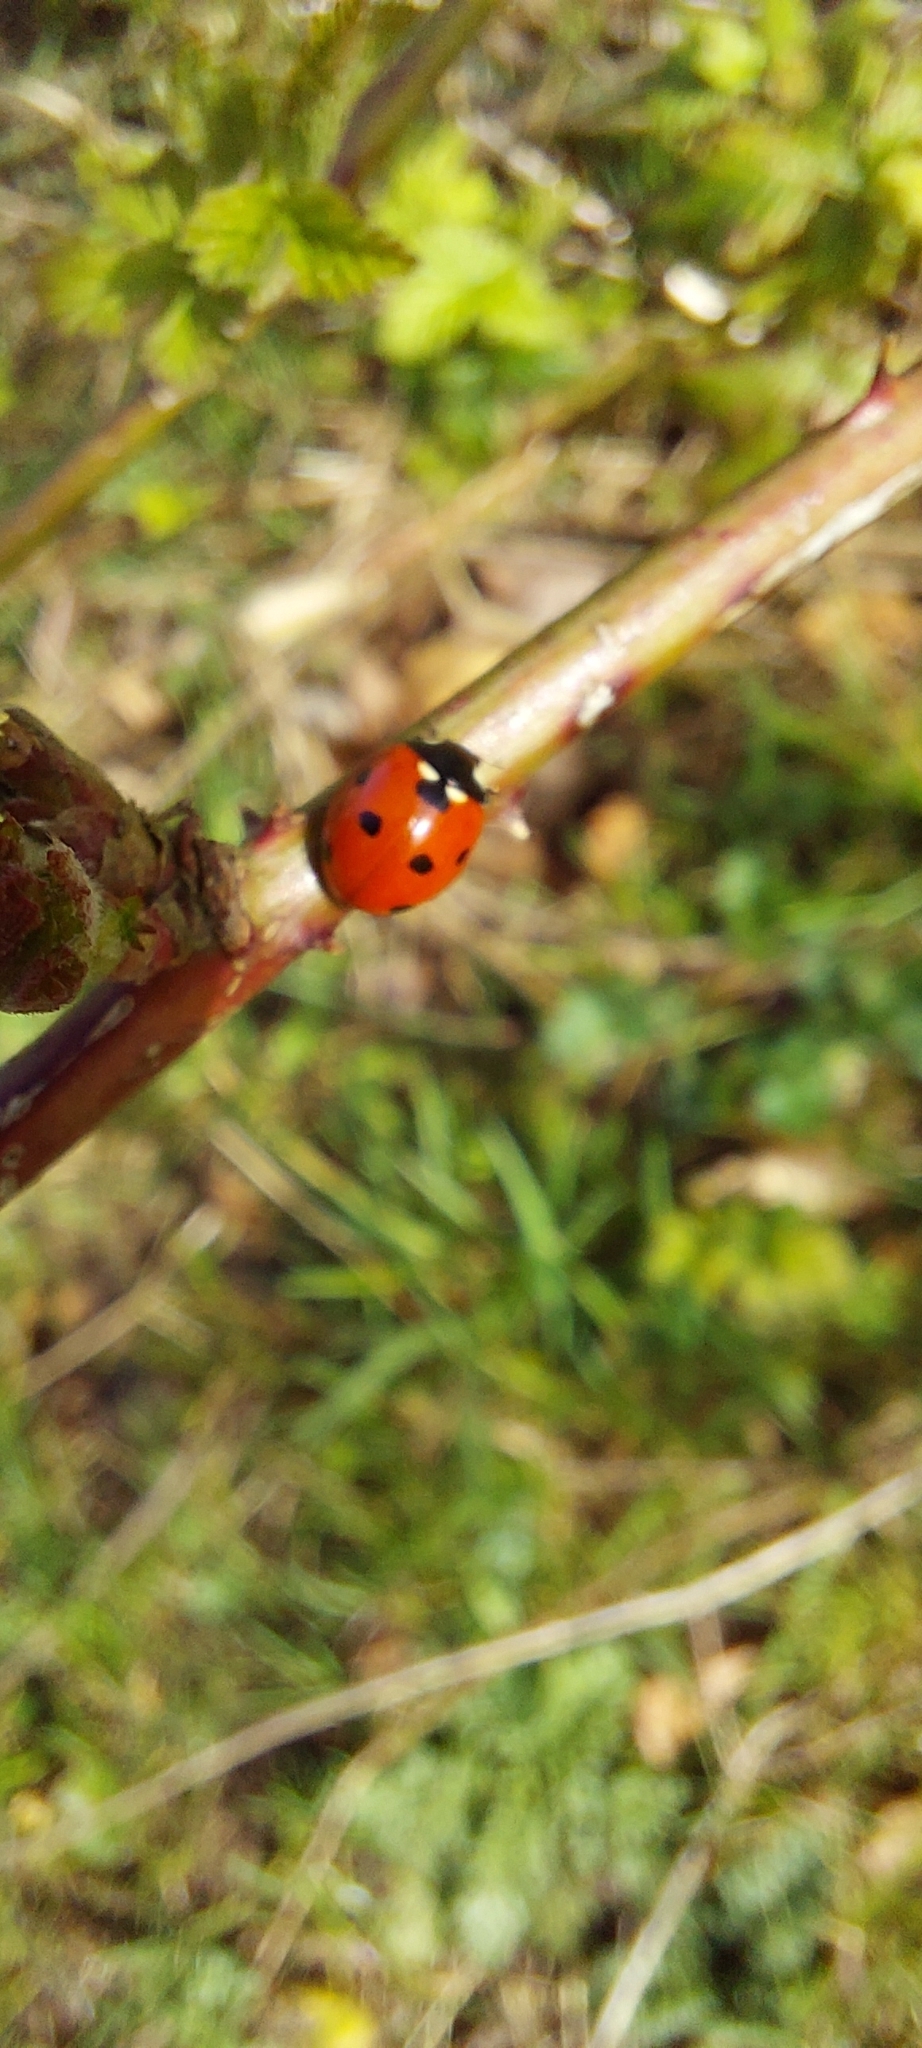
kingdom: Animalia
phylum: Arthropoda
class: Insecta
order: Coleoptera
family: Coccinellidae
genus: Coccinella
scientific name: Coccinella septempunctata
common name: Sevenspotted lady beetle
